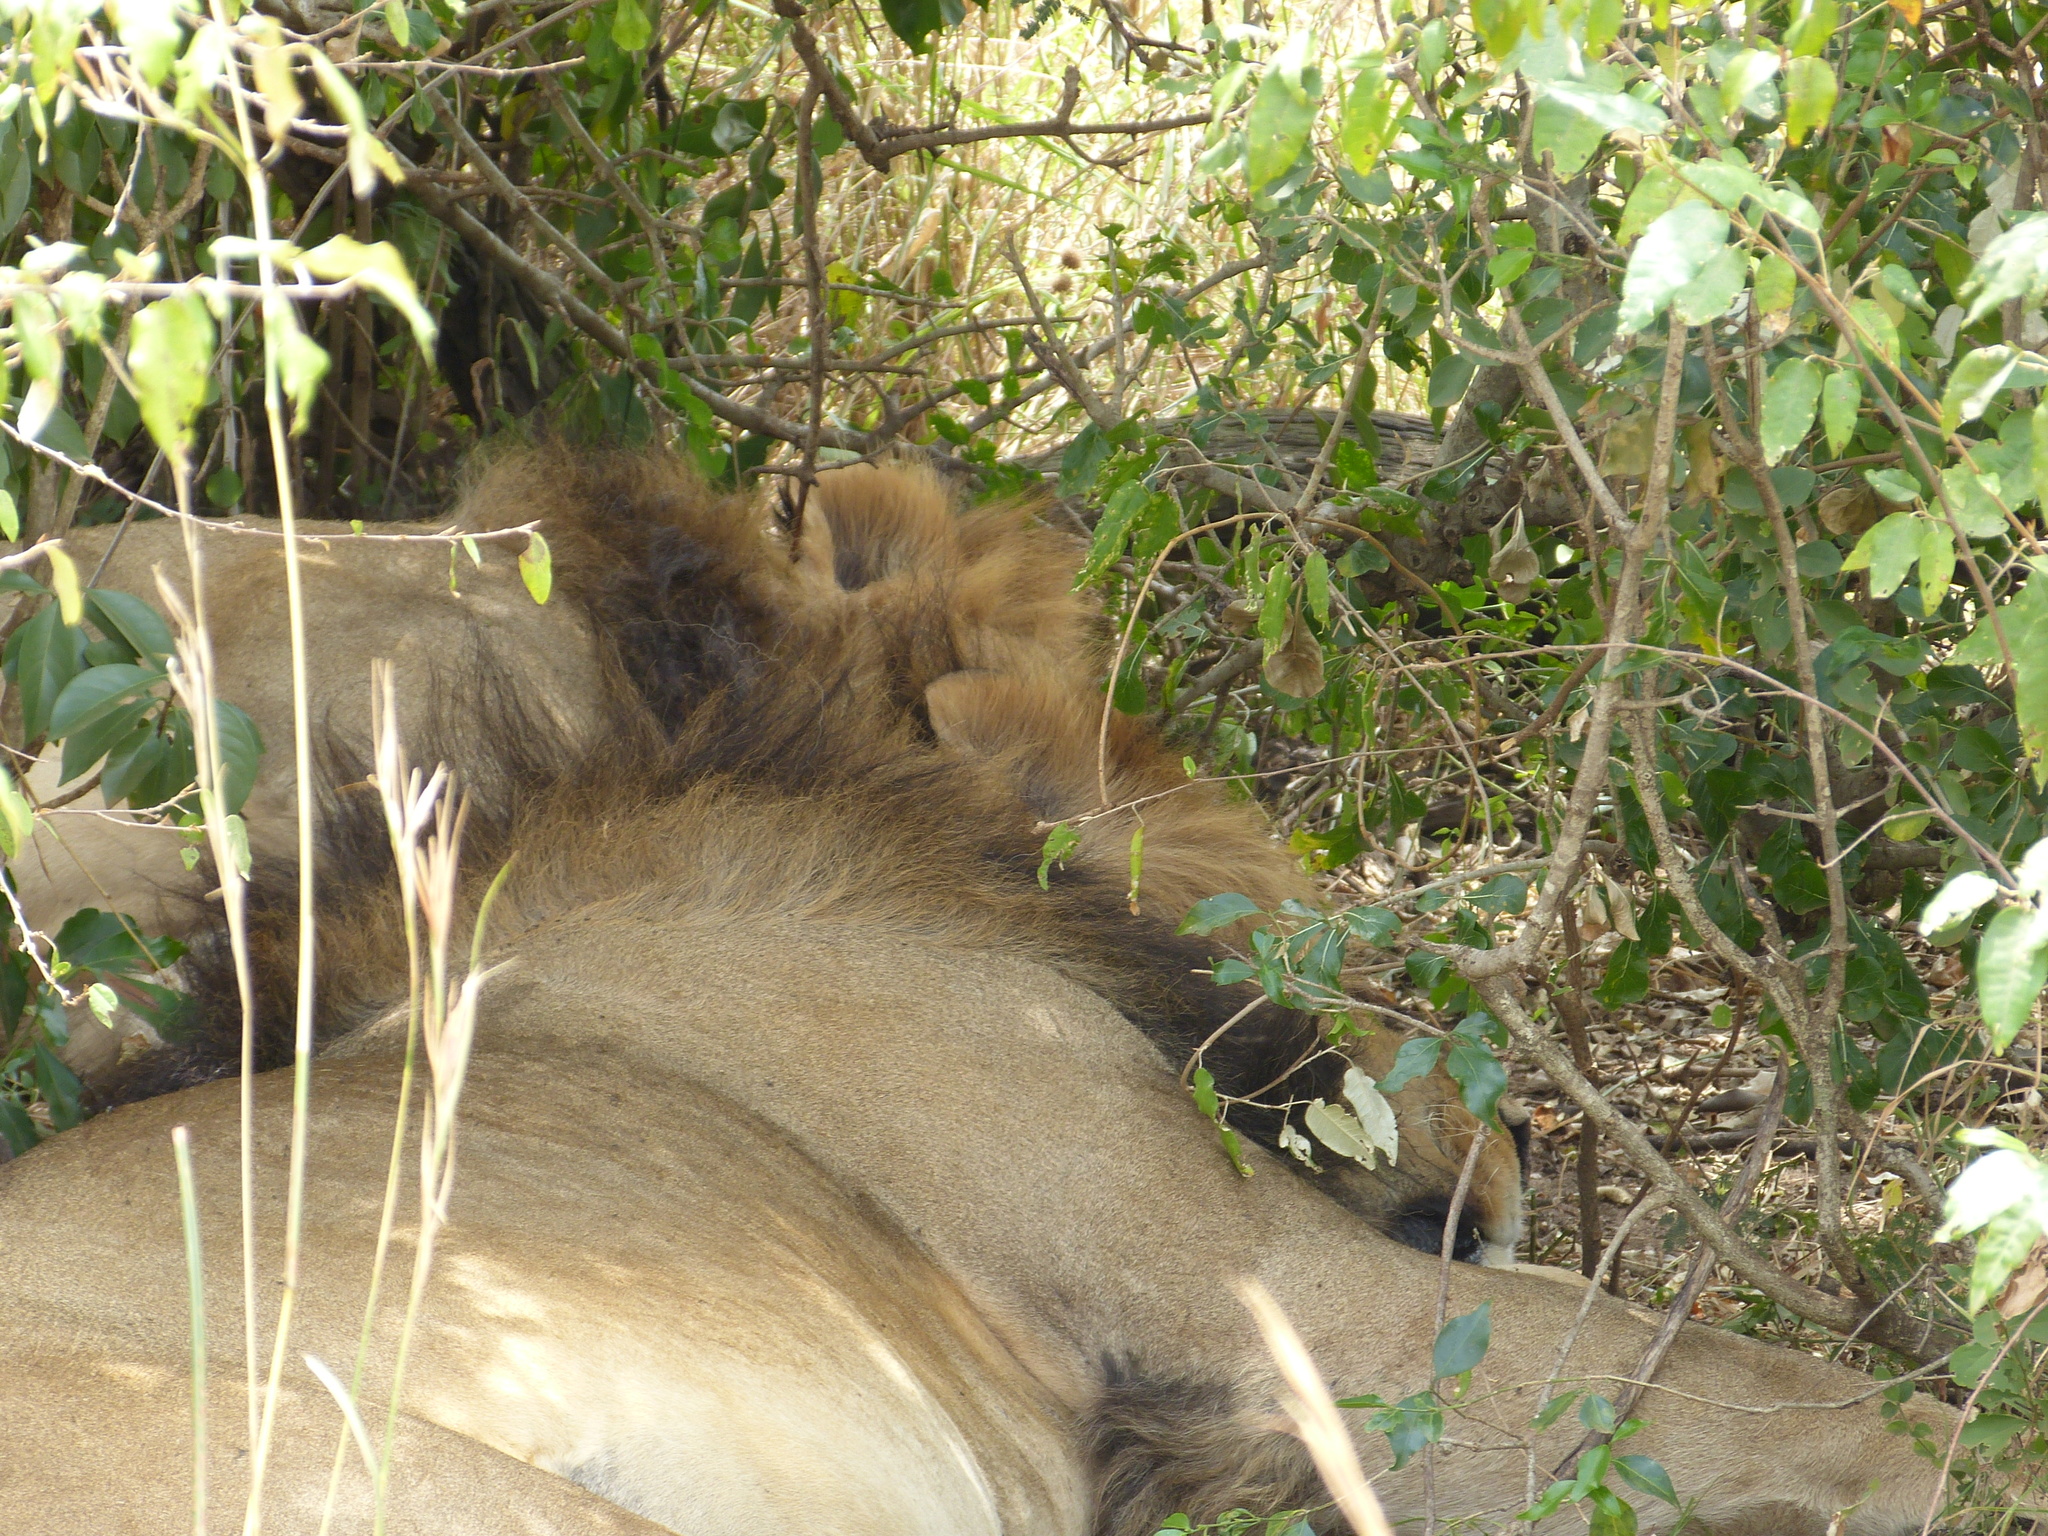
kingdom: Animalia
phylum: Chordata
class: Mammalia
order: Carnivora
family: Felidae
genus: Panthera
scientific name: Panthera leo
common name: Lion
